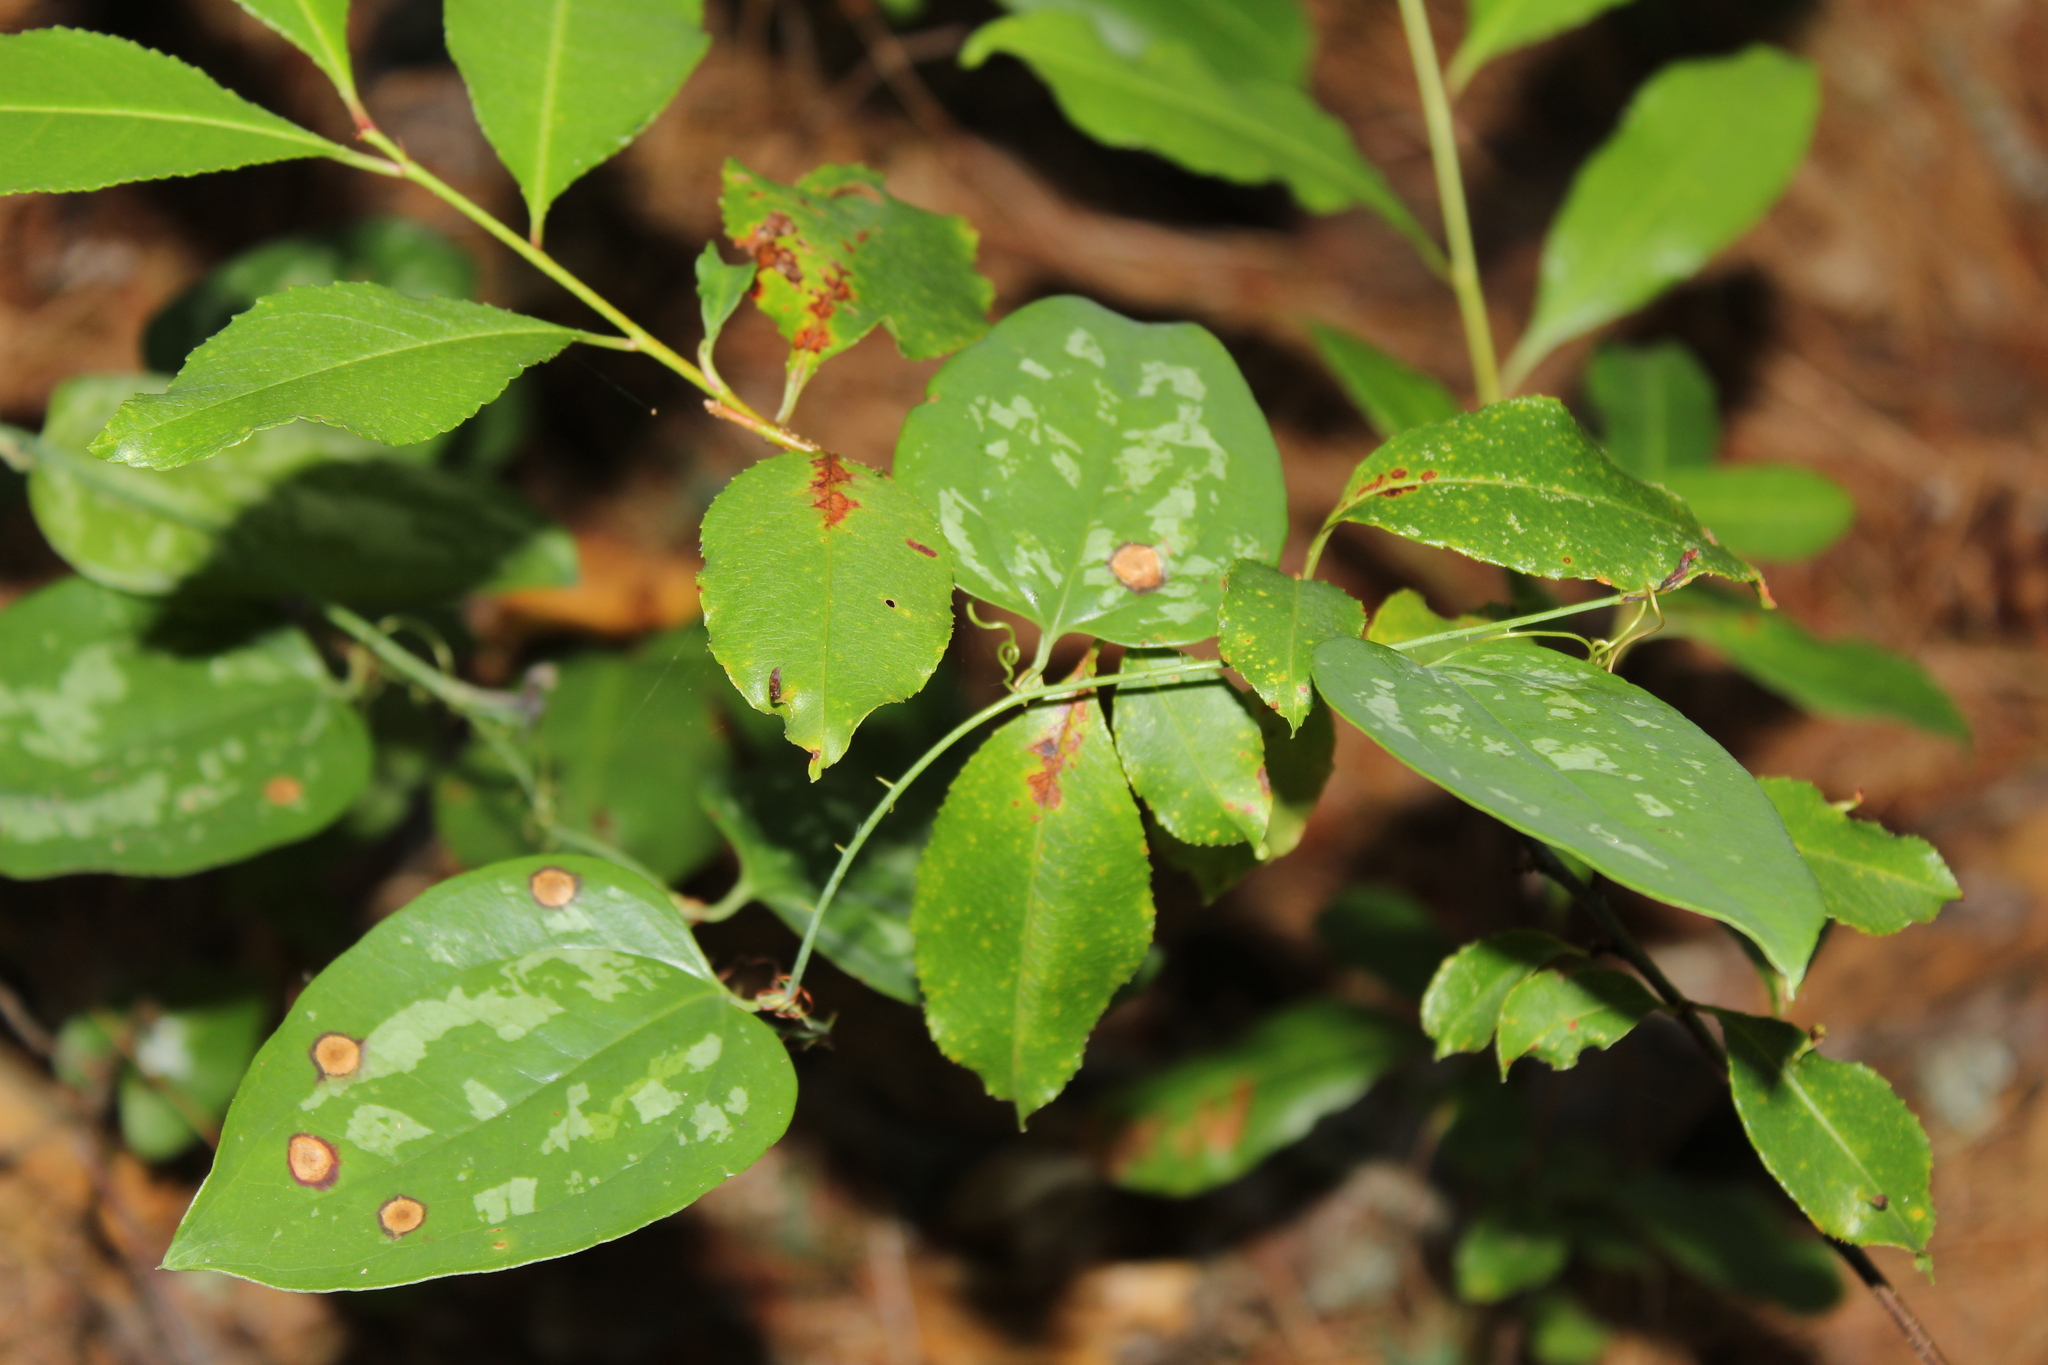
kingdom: Plantae
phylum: Tracheophyta
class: Liliopsida
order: Liliales
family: Smilacaceae
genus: Smilax
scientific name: Smilax glauca
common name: Cat greenbrier
